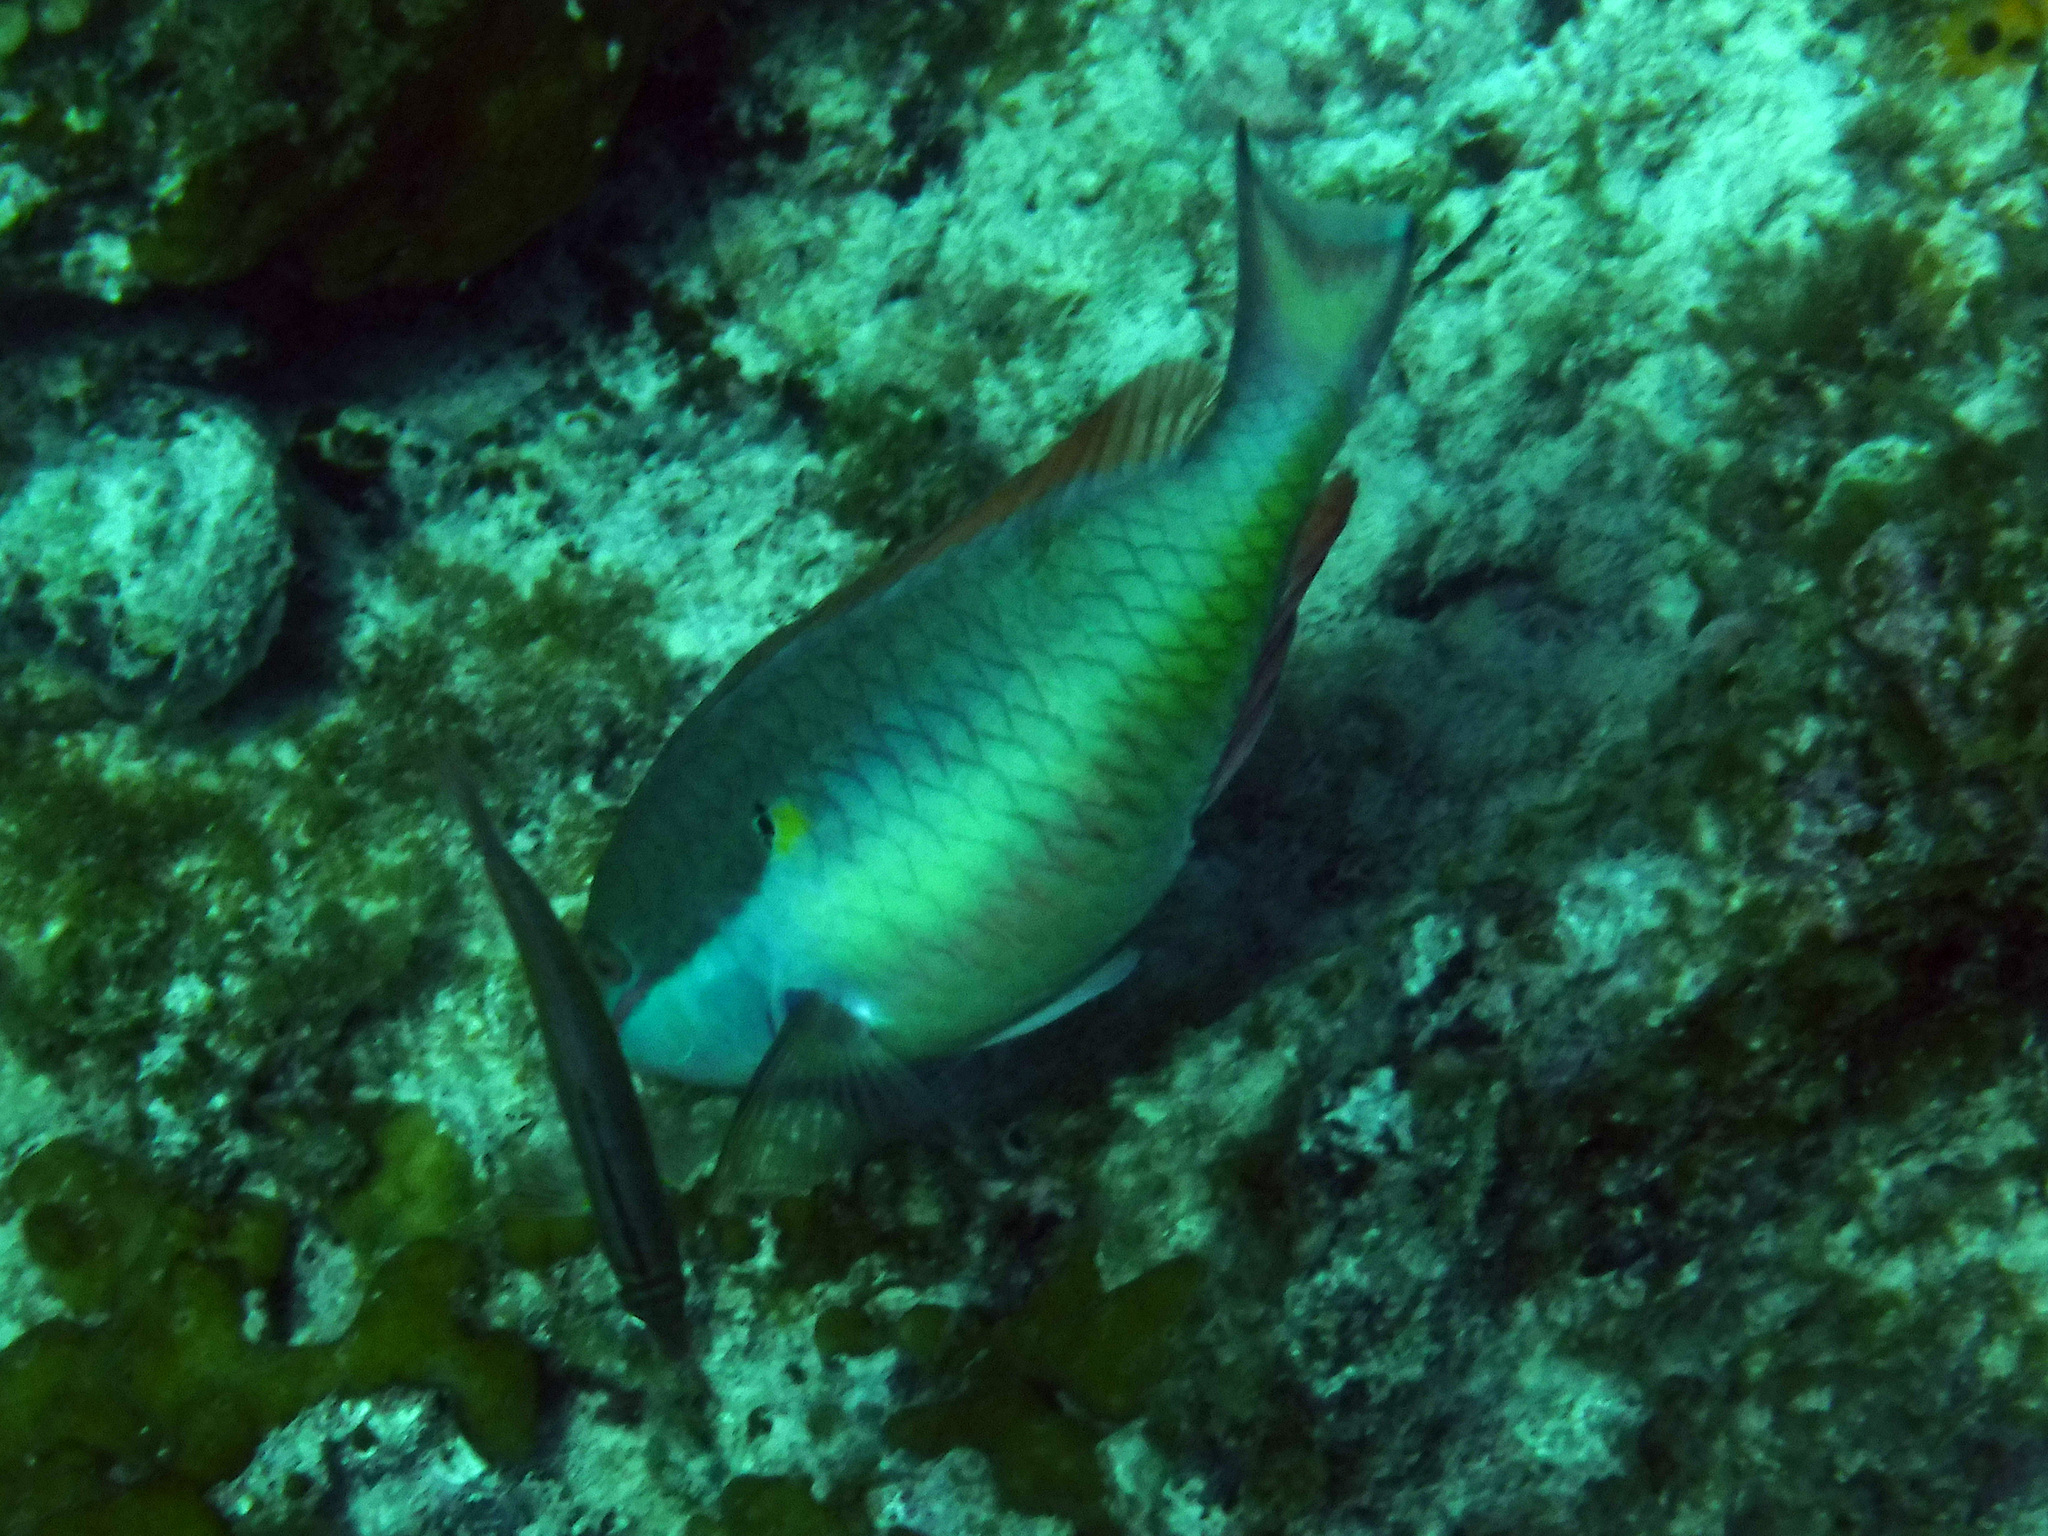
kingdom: Animalia
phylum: Chordata
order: Perciformes
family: Scaridae
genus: Sparisoma
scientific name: Sparisoma aurofrenatum
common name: Redband parrotfish
